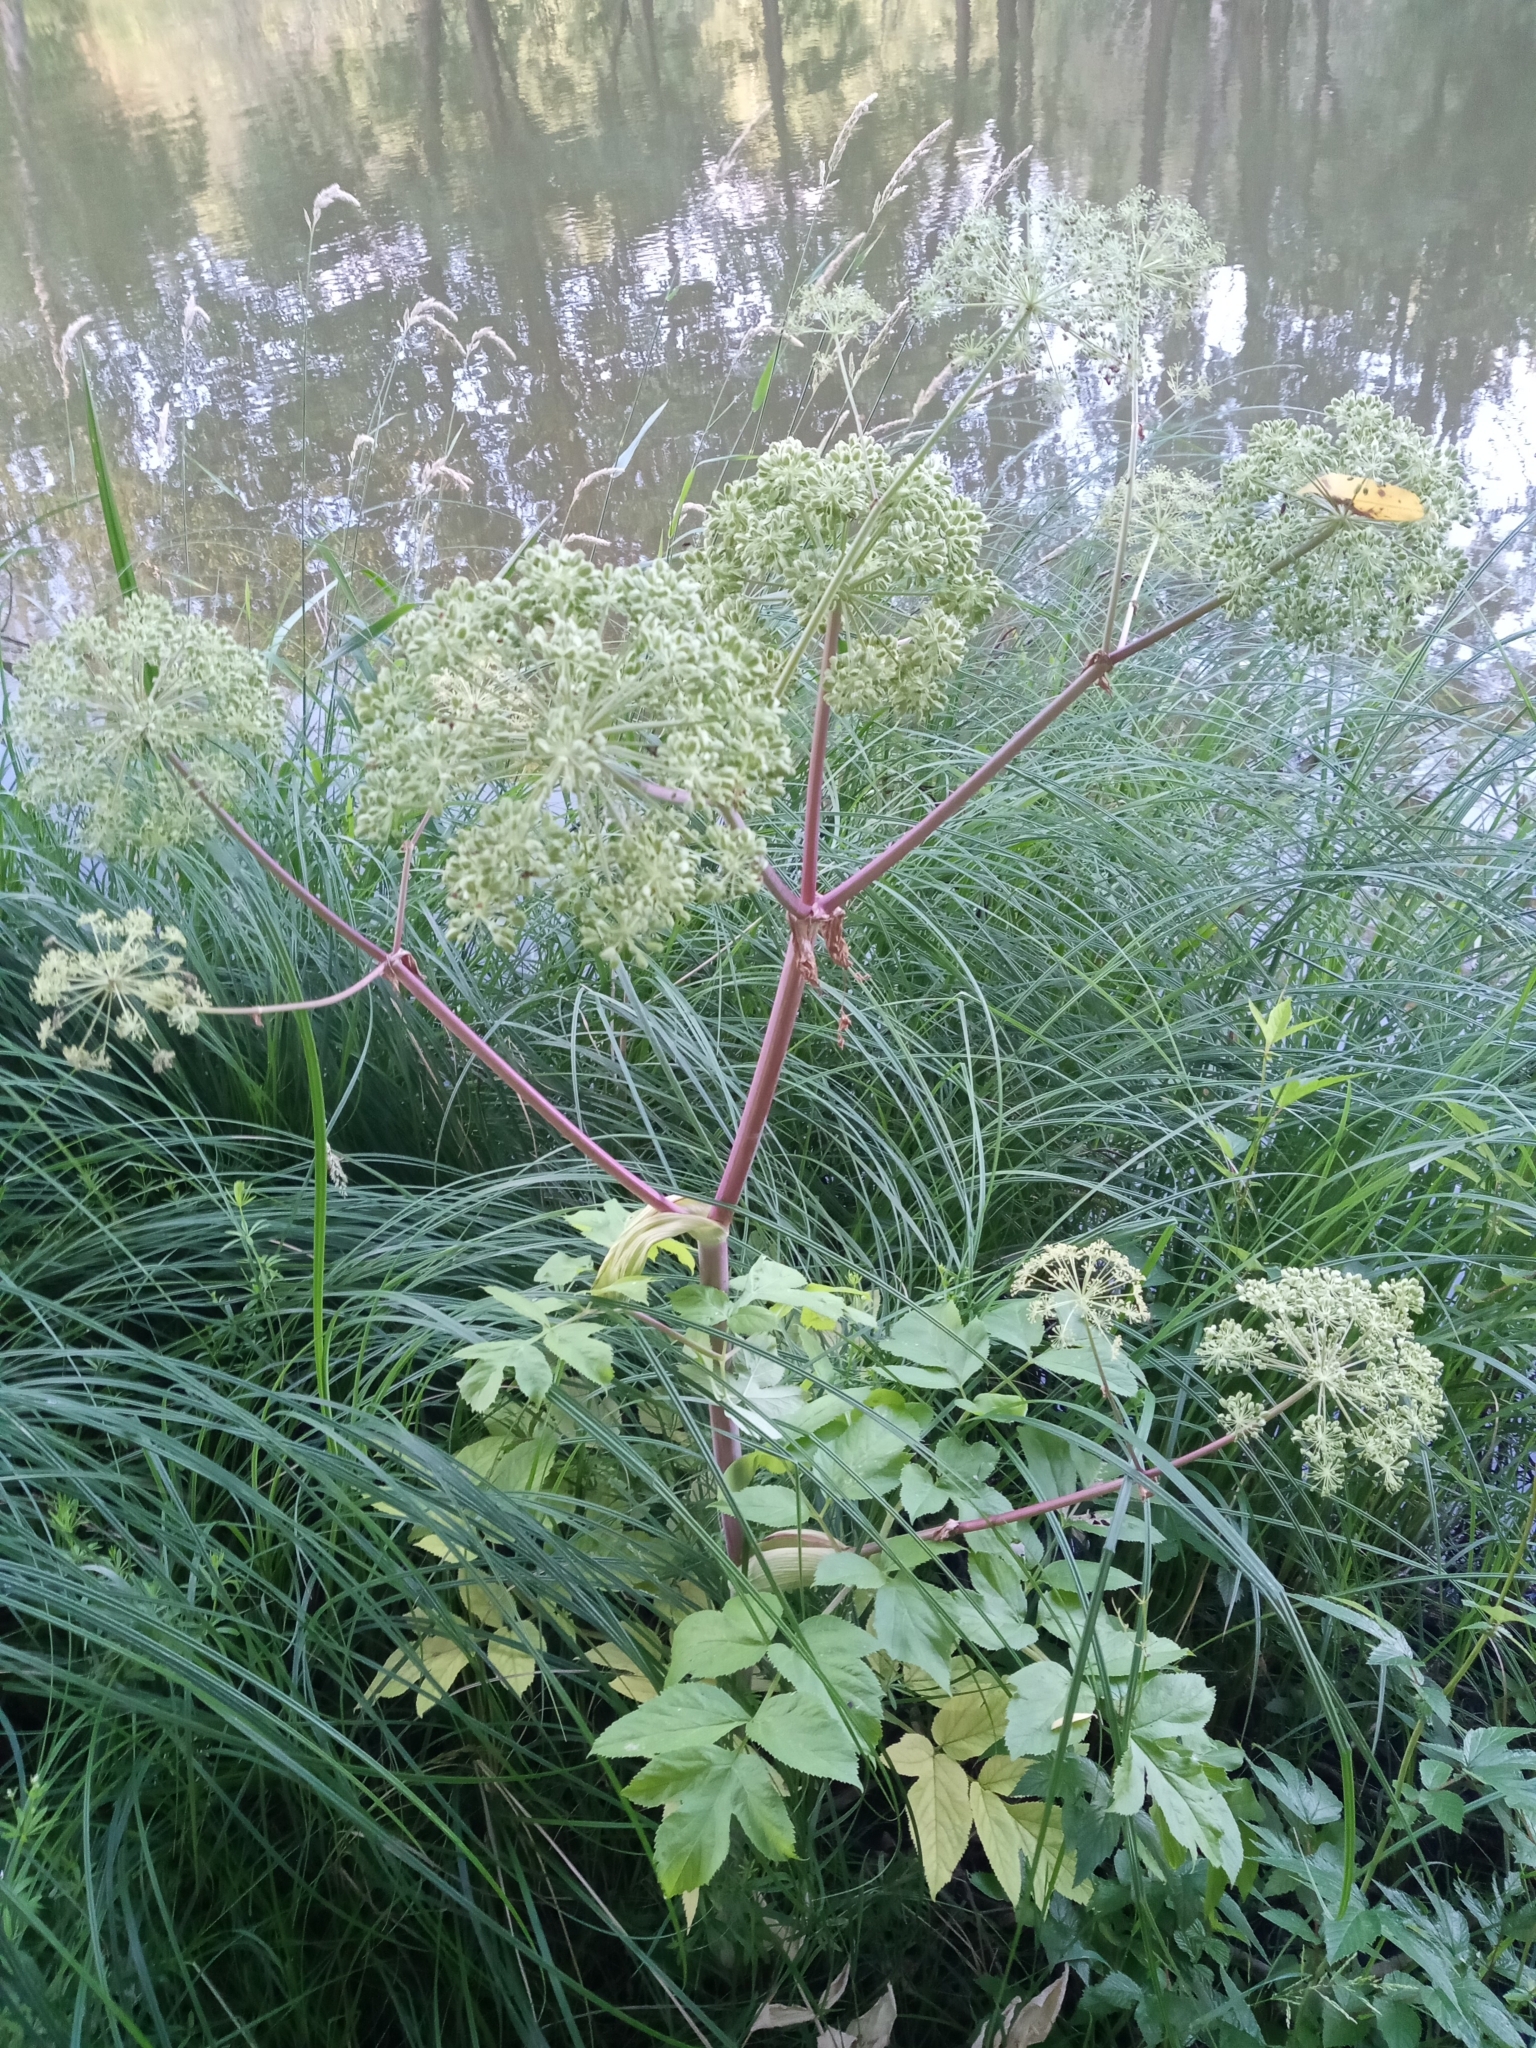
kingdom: Plantae
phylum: Tracheophyta
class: Magnoliopsida
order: Apiales
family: Apiaceae
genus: Angelica
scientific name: Angelica archangelica
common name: Garden angelica
